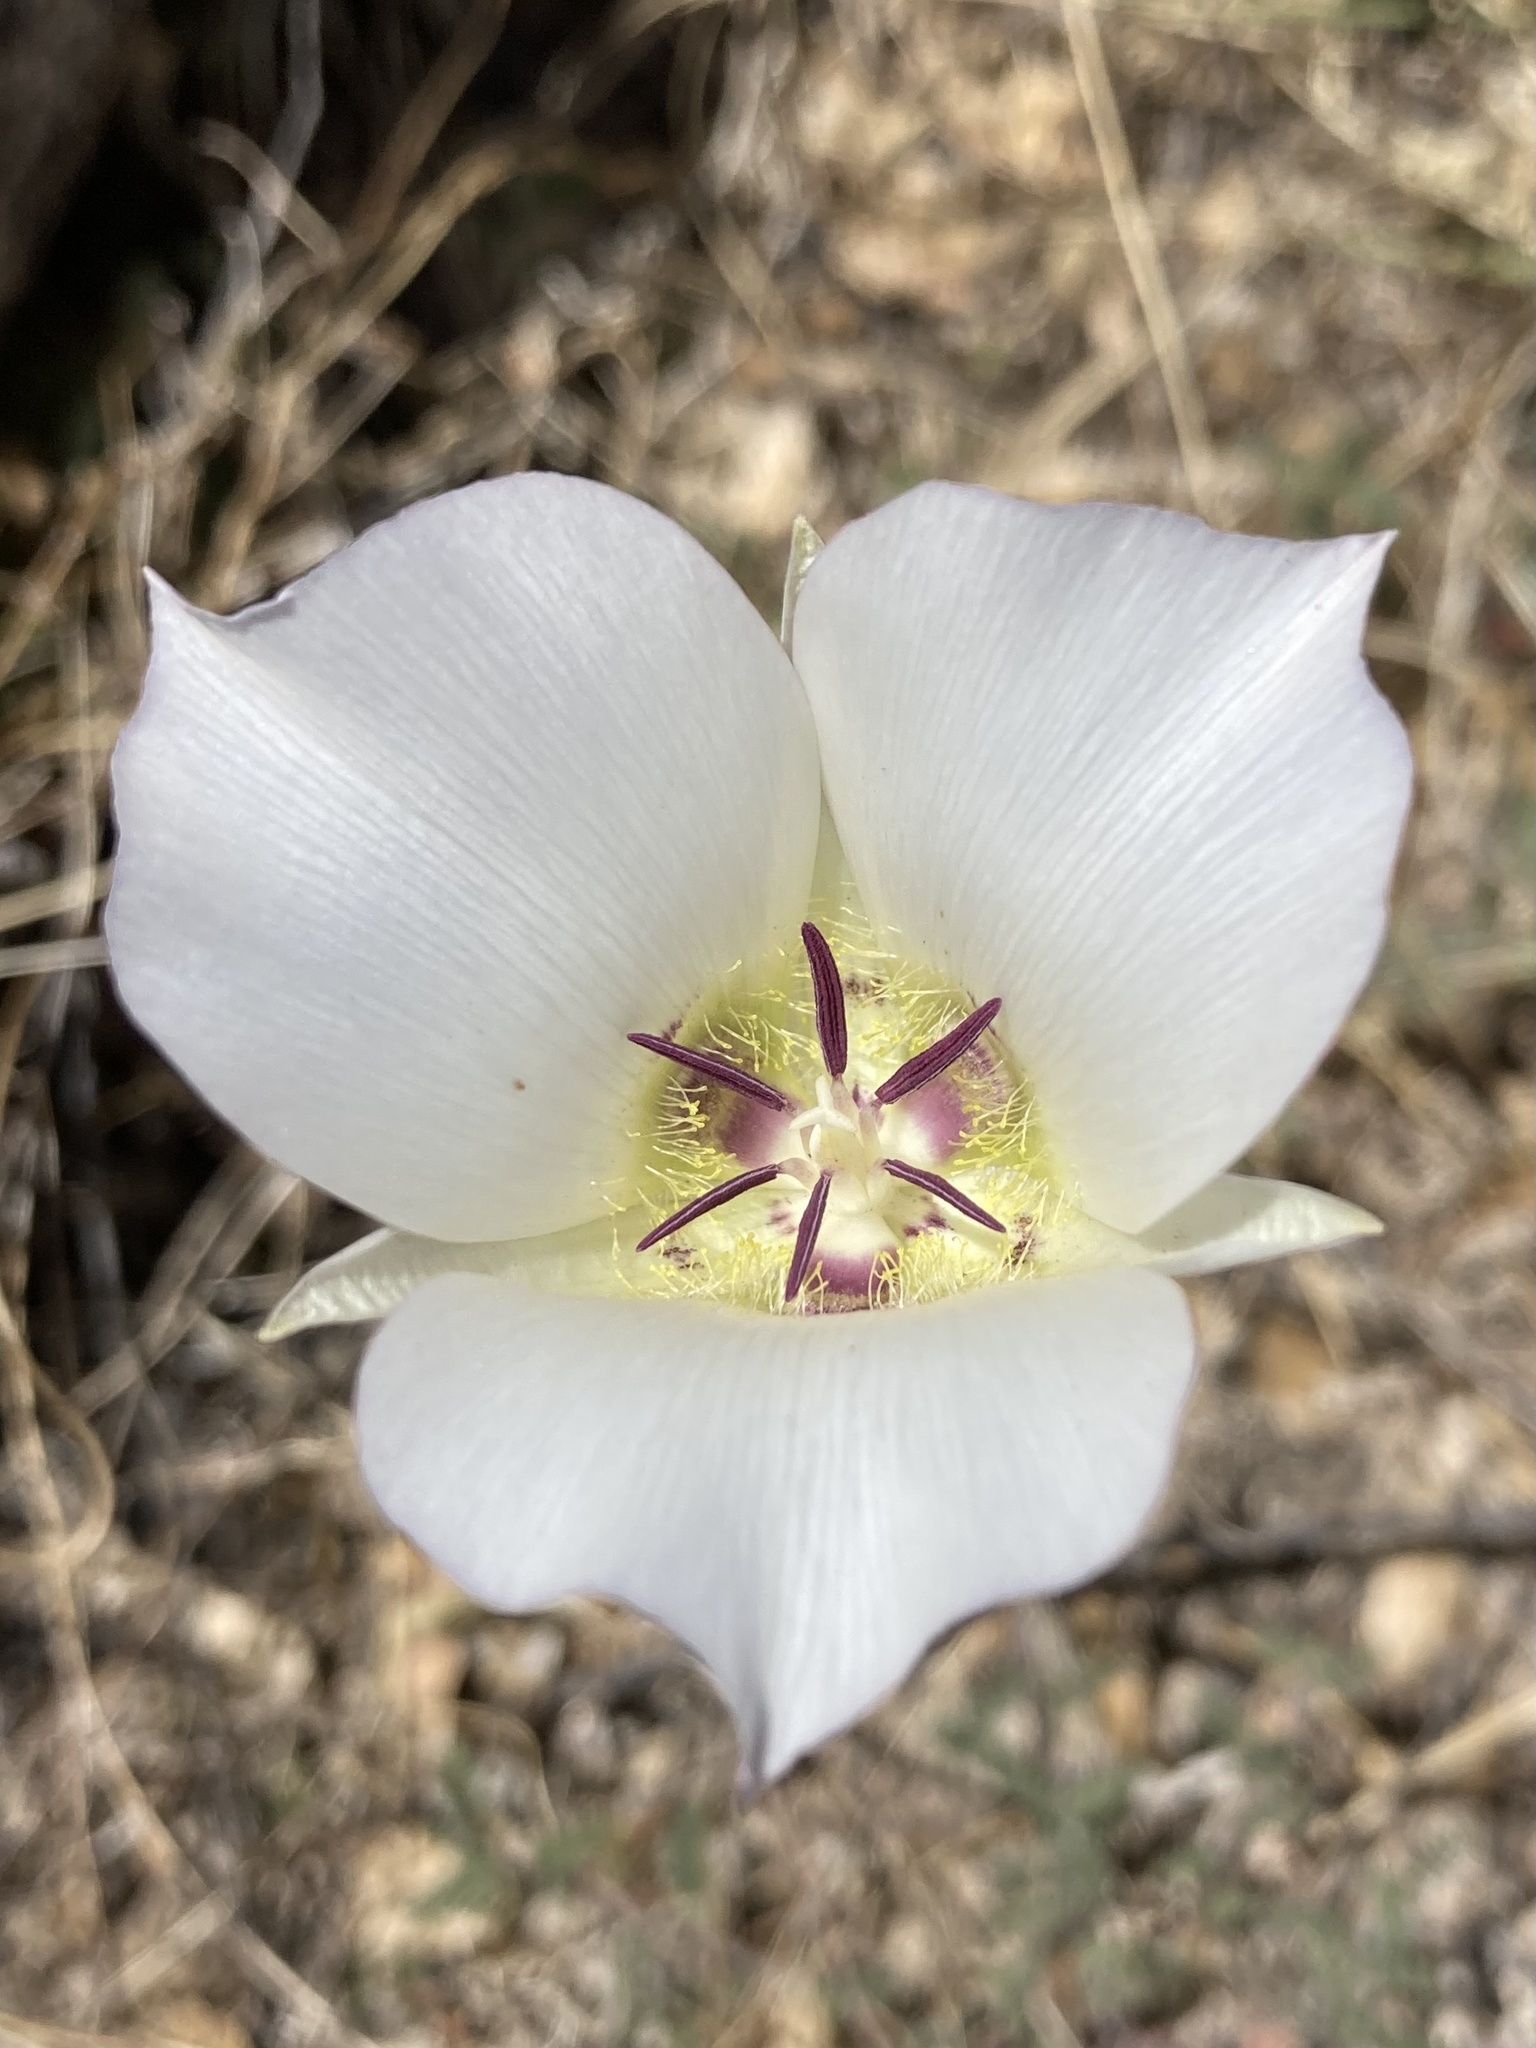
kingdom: Plantae
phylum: Tracheophyta
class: Liliopsida
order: Liliales
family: Liliaceae
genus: Calochortus
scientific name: Calochortus ambiguus
